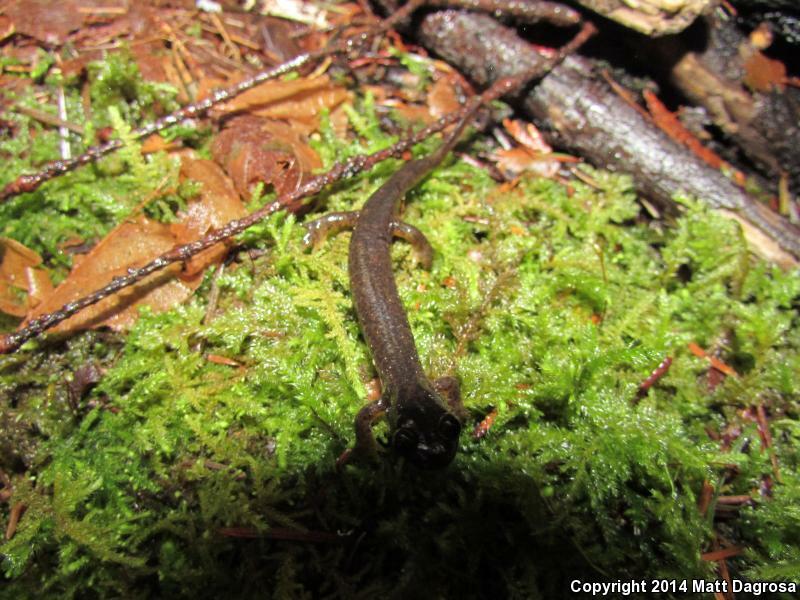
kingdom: Animalia
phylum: Chordata
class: Amphibia
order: Caudata
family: Rhyacotritonidae
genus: Rhyacotriton
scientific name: Rhyacotriton cascadae
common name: Cascade torrent salamander
